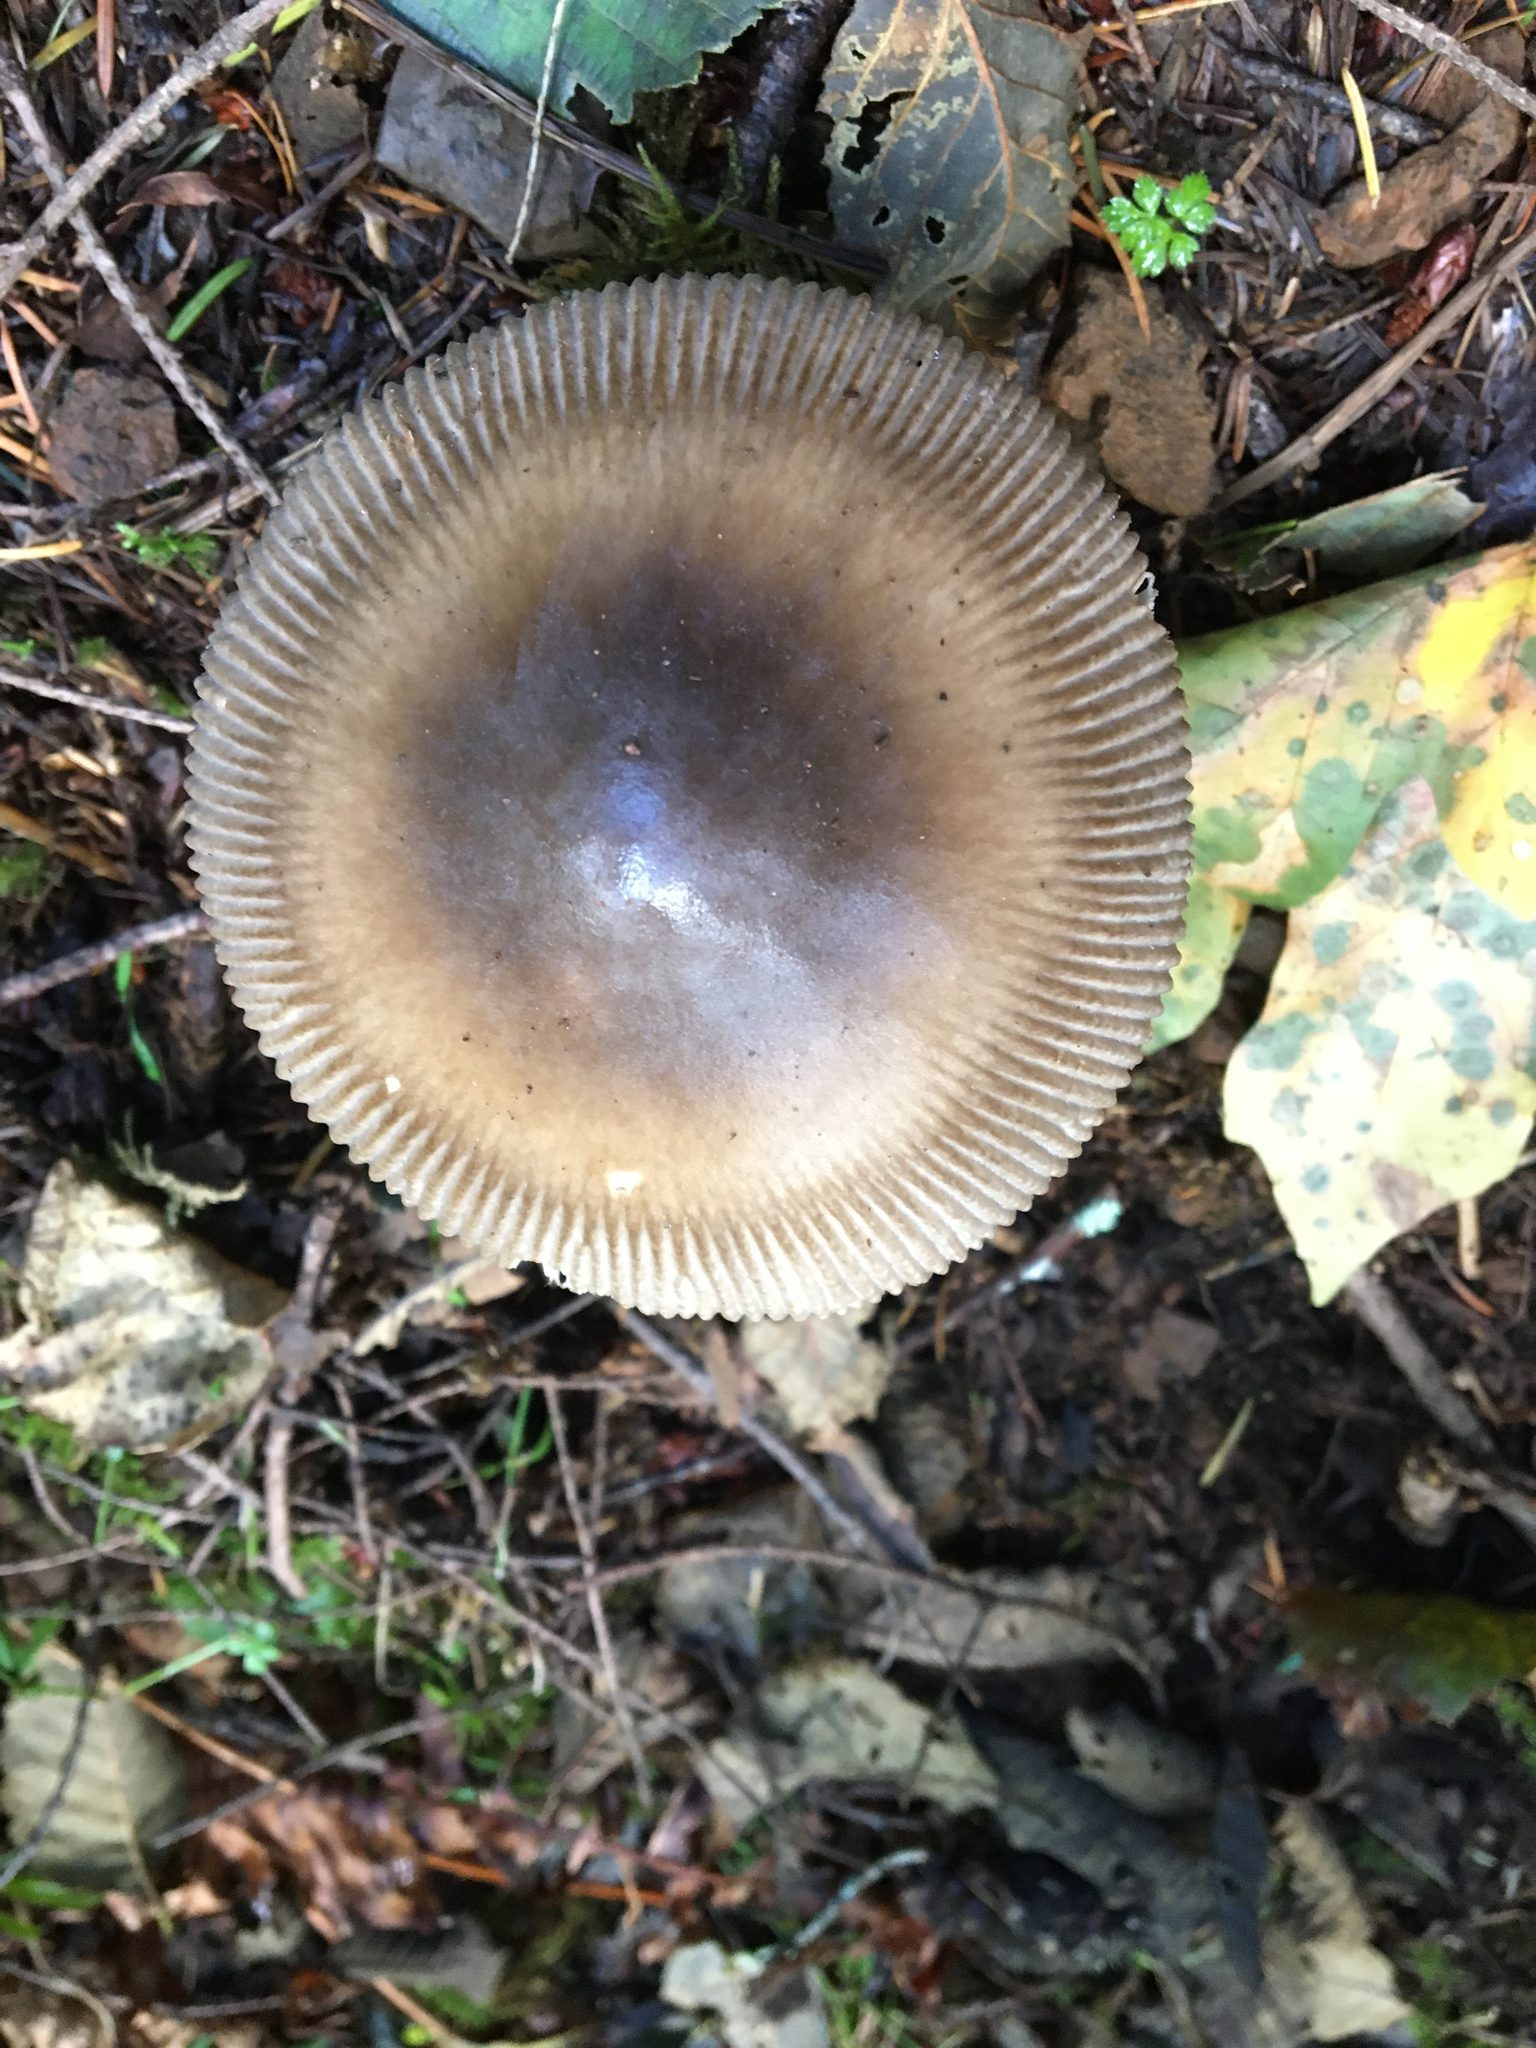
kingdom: Fungi
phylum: Basidiomycota
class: Agaricomycetes
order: Agaricales
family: Amanitaceae
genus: Amanita
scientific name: Amanita pachycolea
